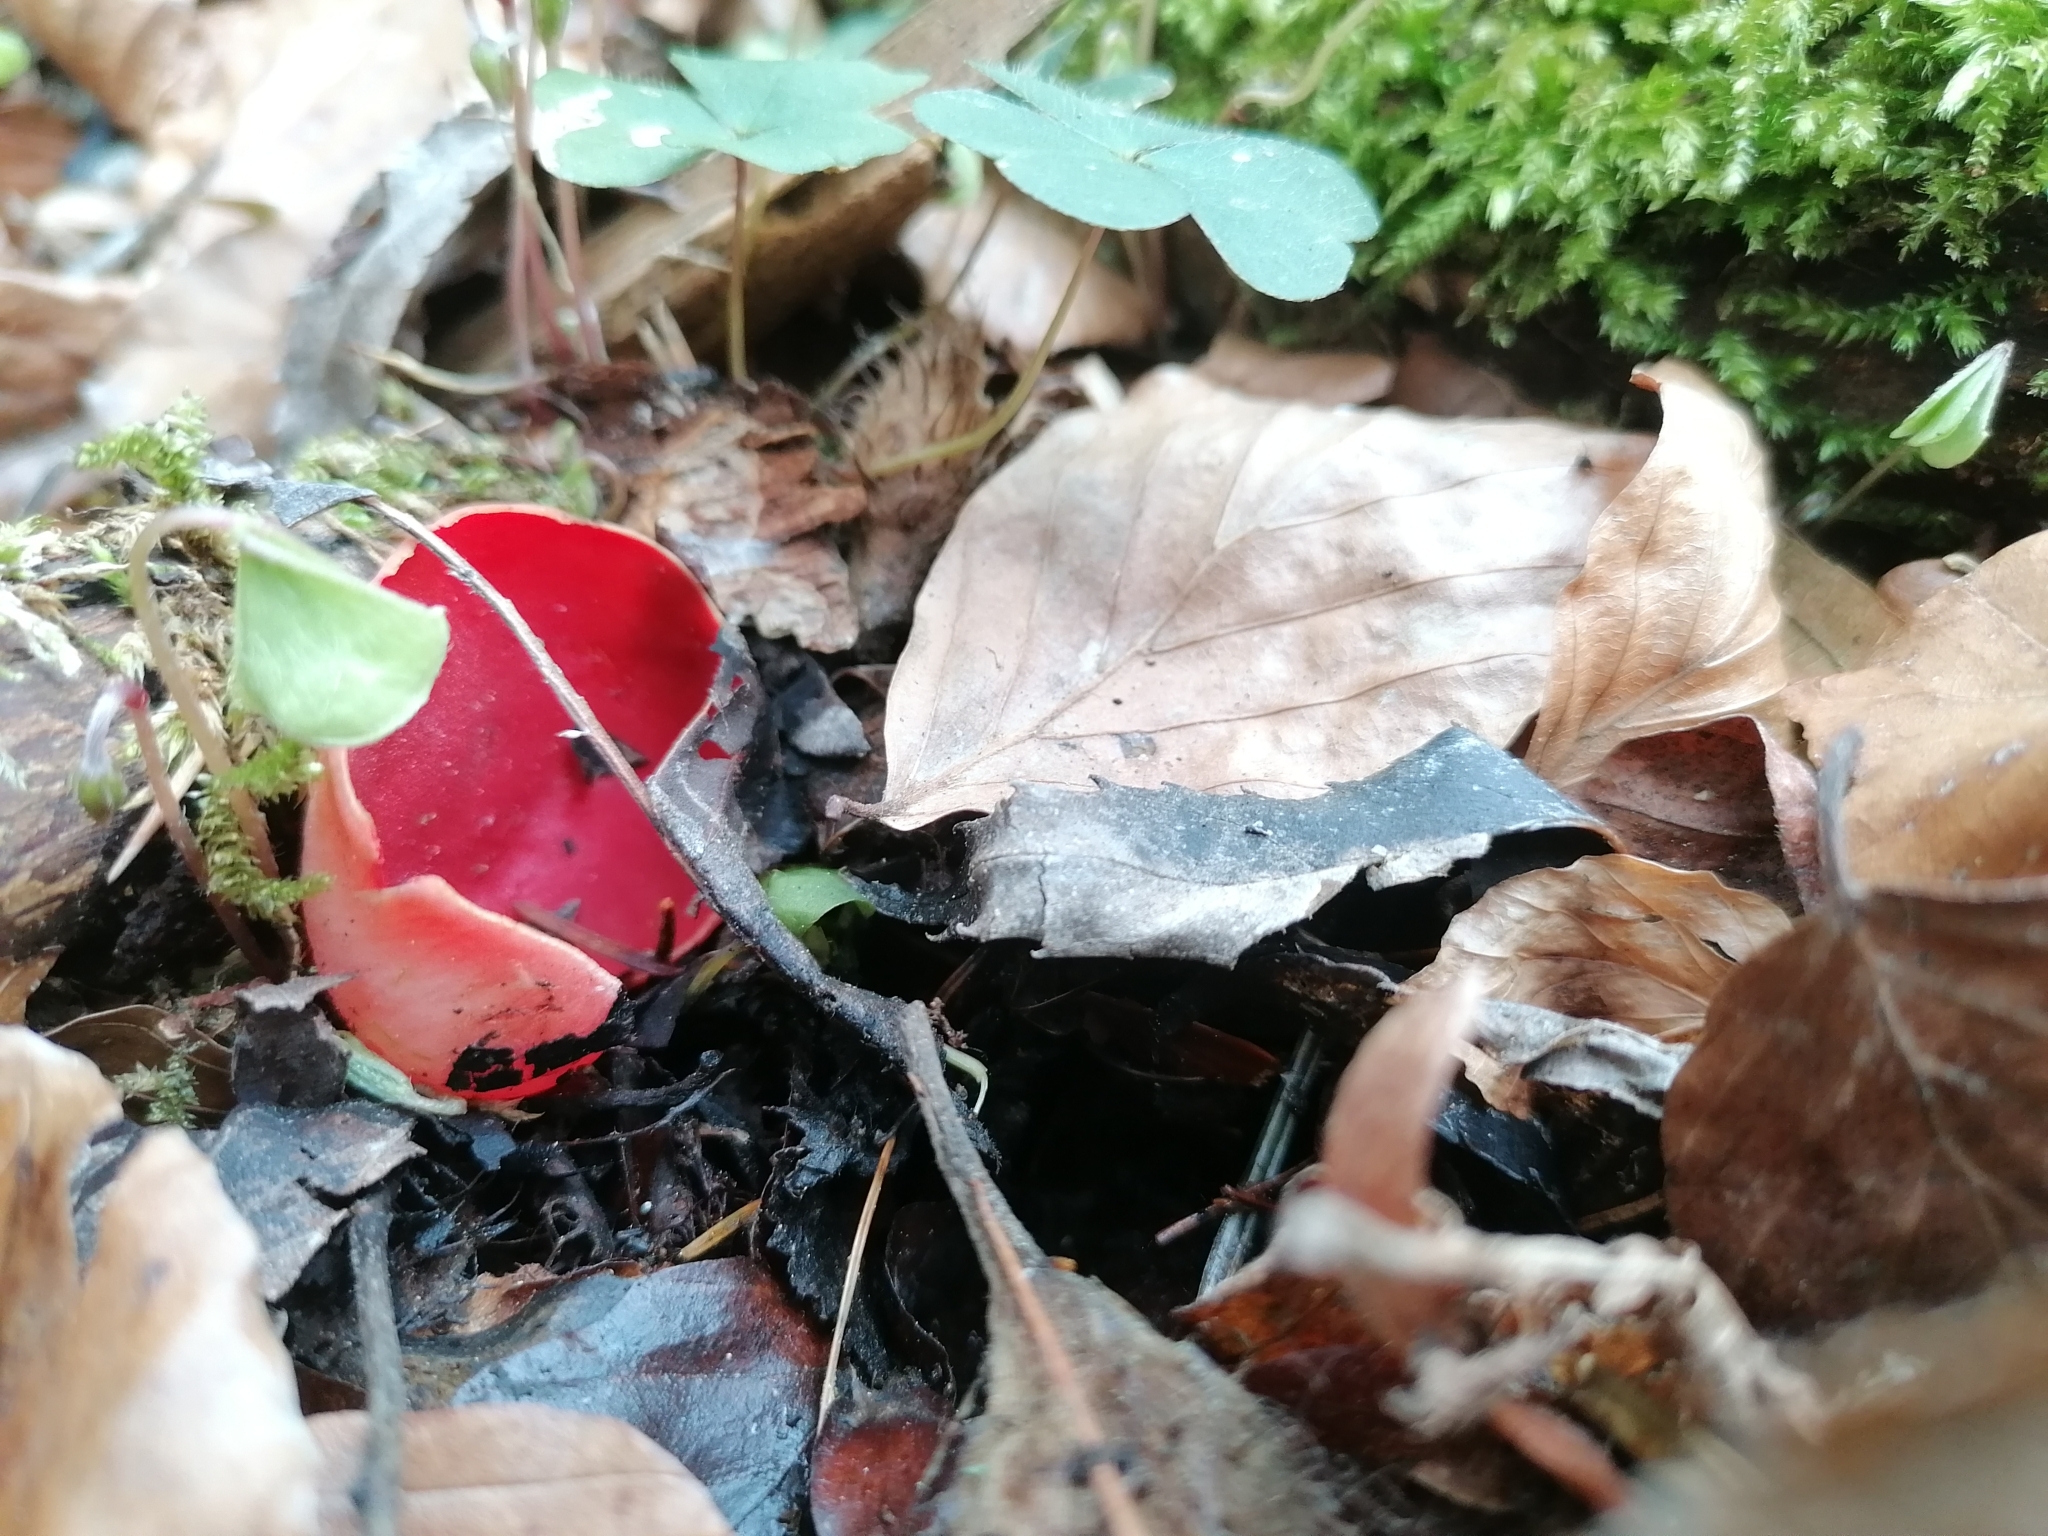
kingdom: Fungi
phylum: Ascomycota
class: Pezizomycetes
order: Pezizales
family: Sarcoscyphaceae
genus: Sarcoscypha
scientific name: Sarcoscypha
